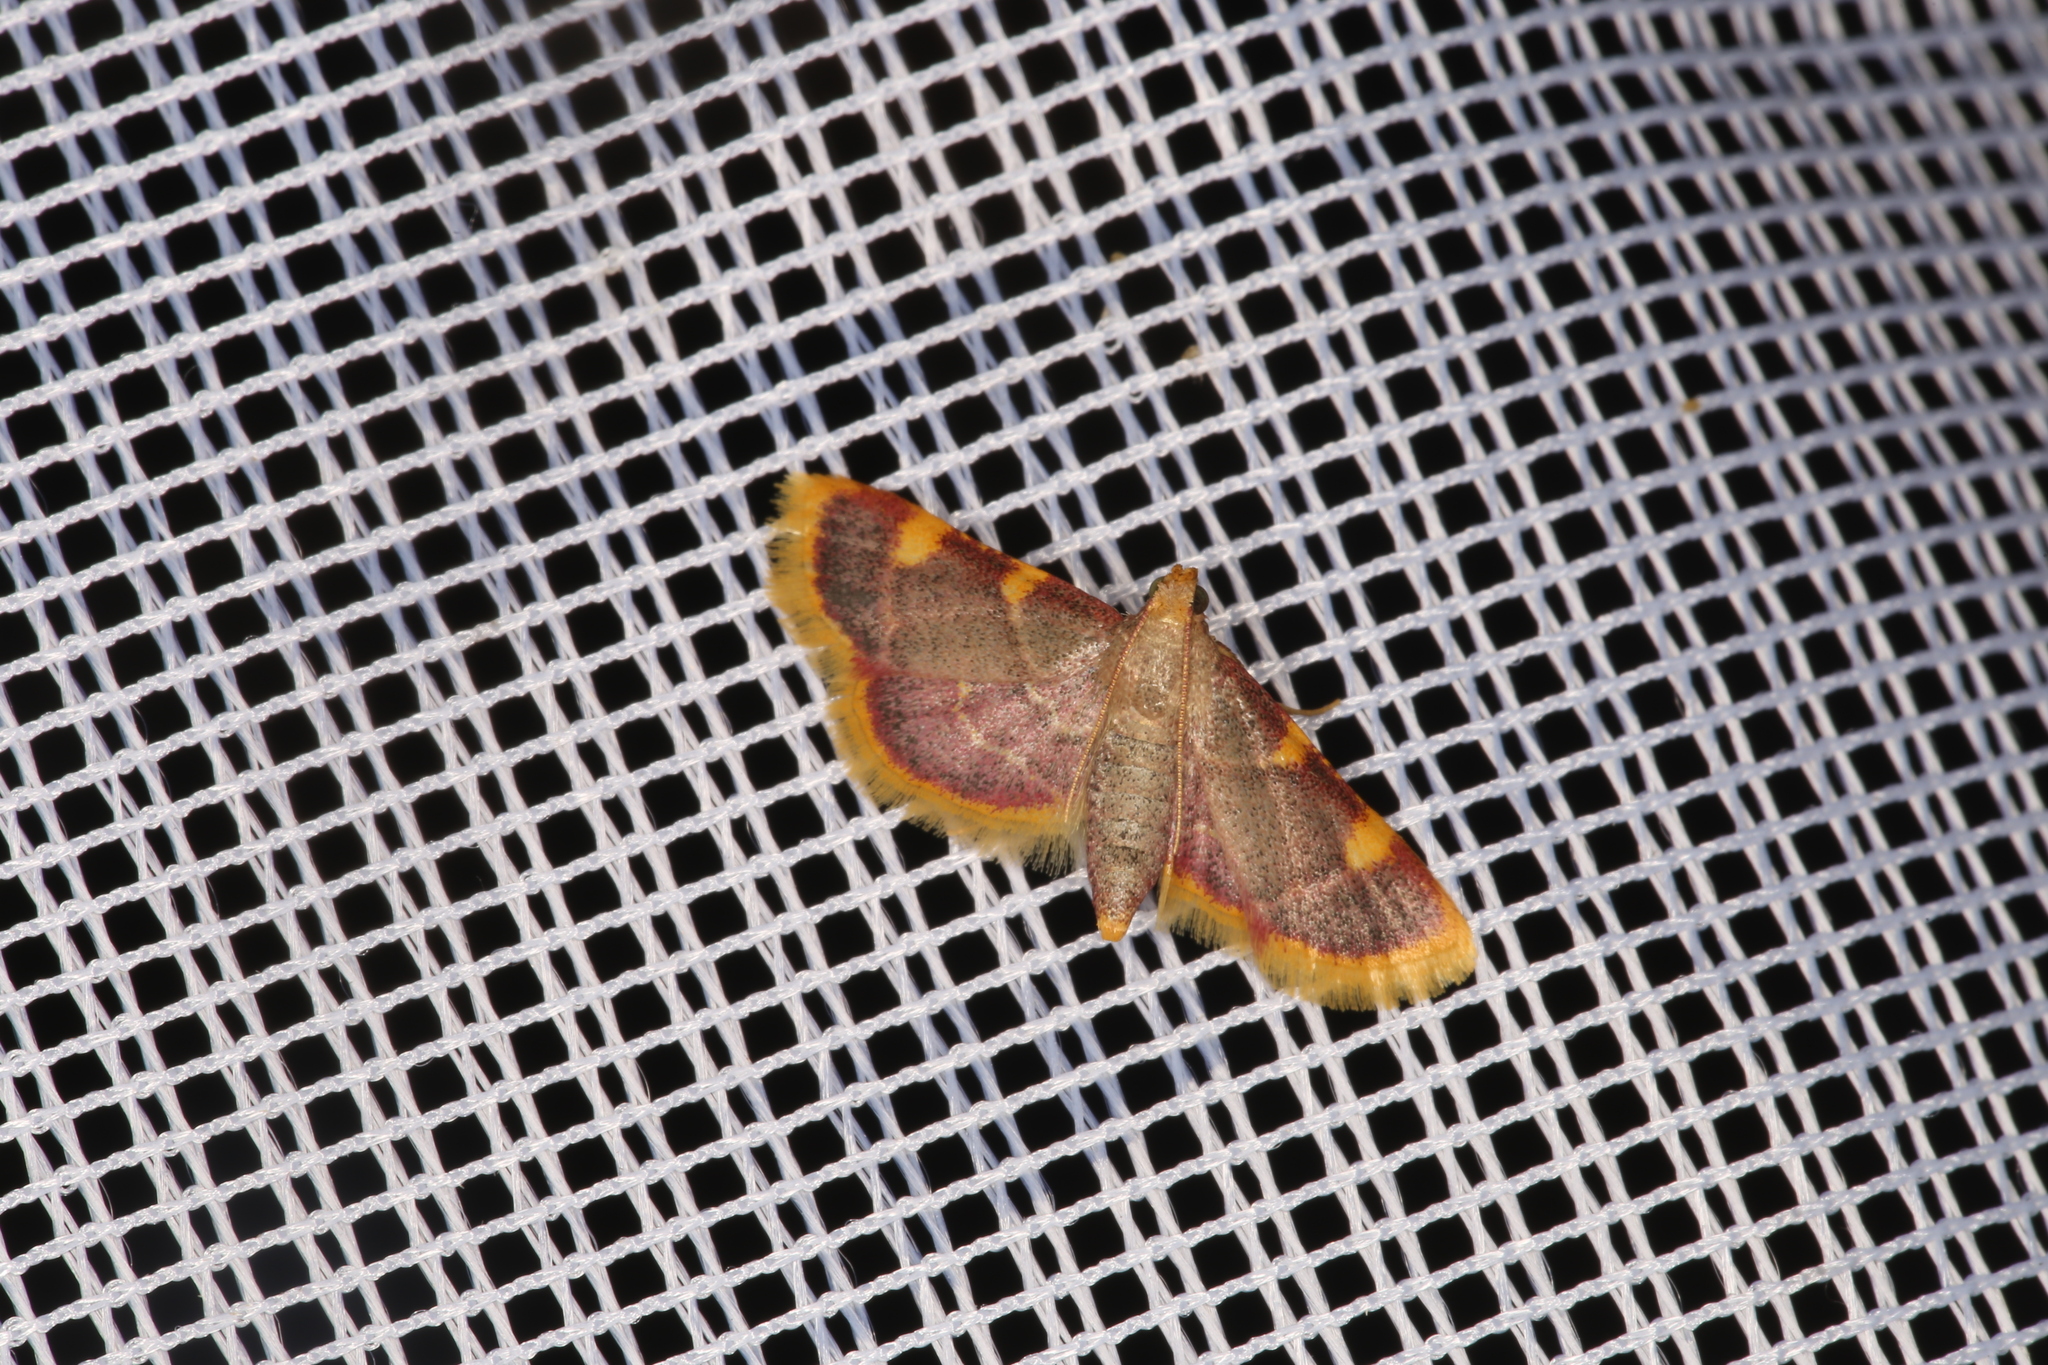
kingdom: Animalia
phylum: Arthropoda
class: Insecta
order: Lepidoptera
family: Pyralidae
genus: Hypsopygia
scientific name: Hypsopygia costalis
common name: Gold triangle
